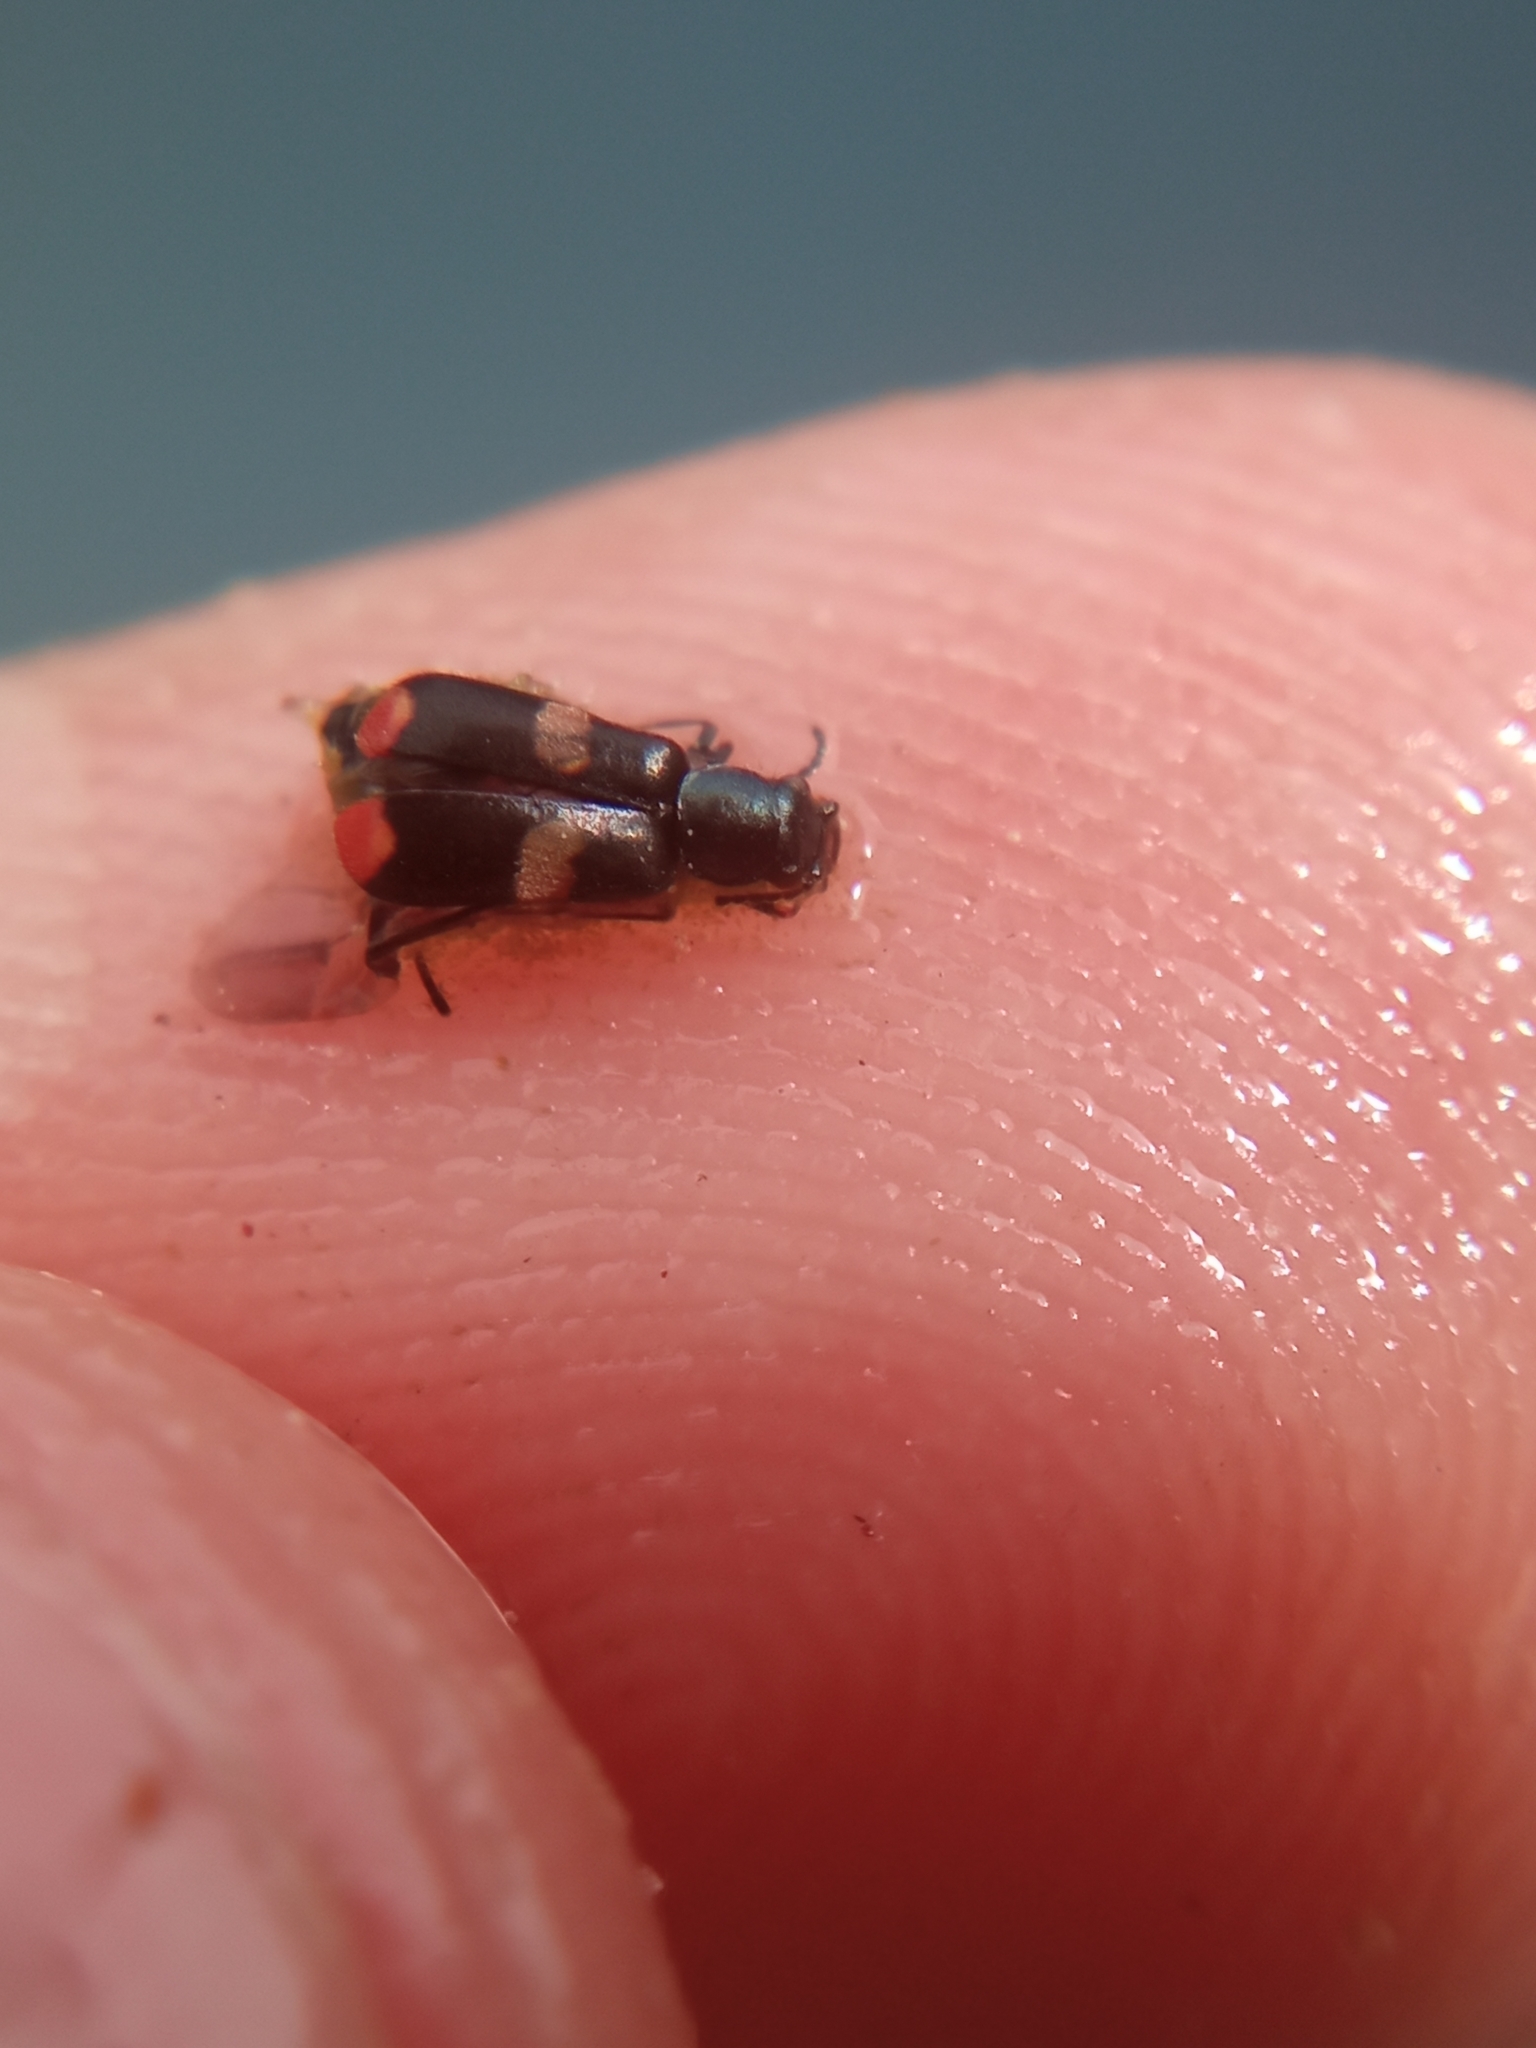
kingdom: Animalia
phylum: Arthropoda
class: Insecta
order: Coleoptera
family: Melyridae
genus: Anthocomus
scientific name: Anthocomus fasciatus
